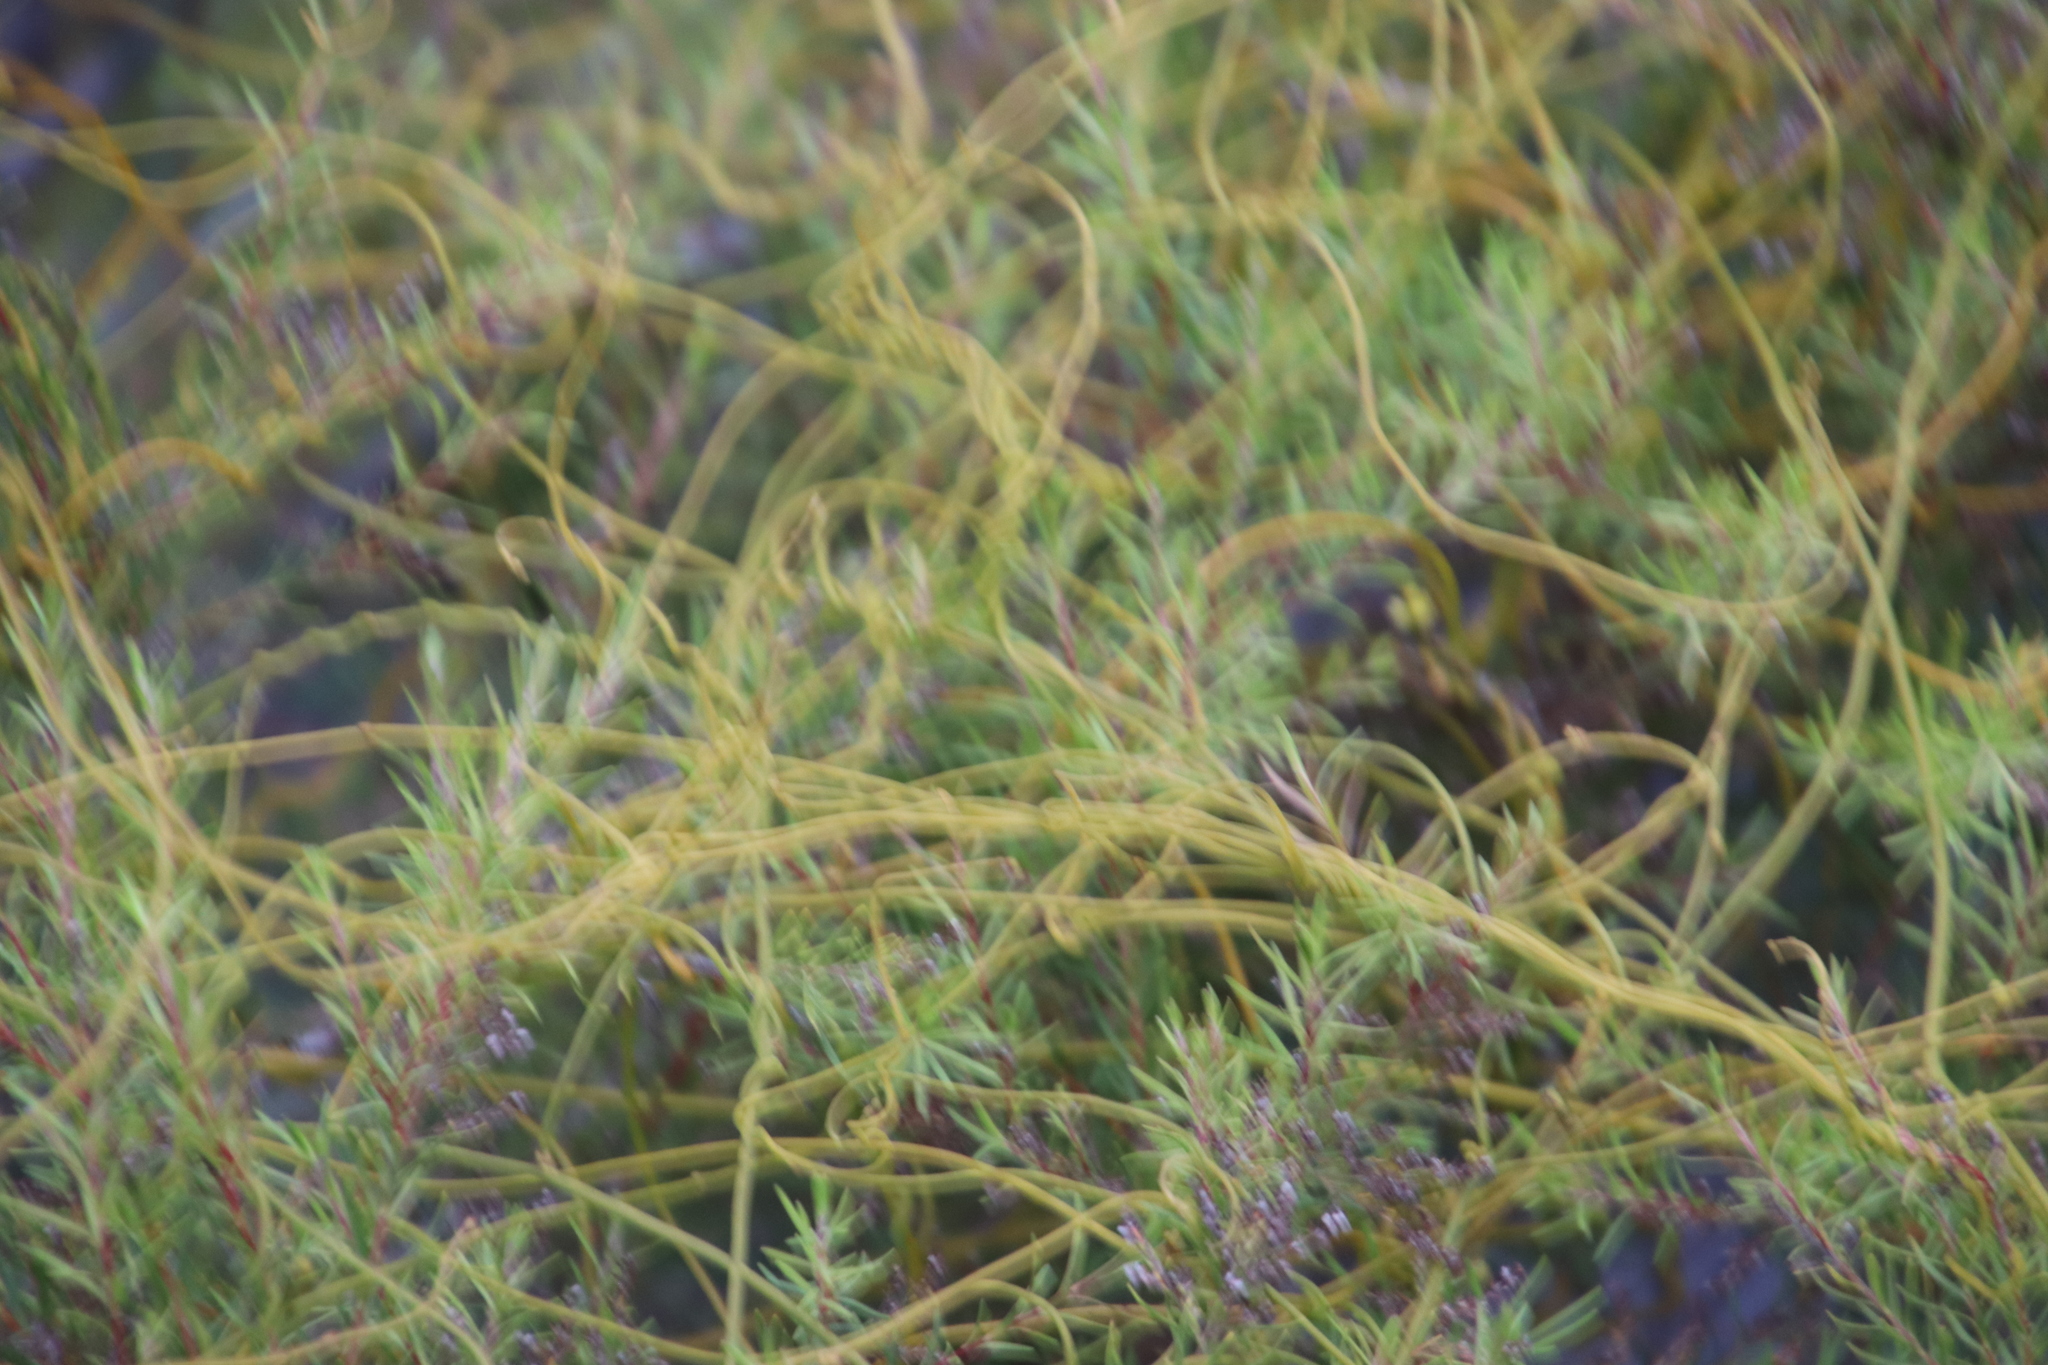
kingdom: Plantae
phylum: Tracheophyta
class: Magnoliopsida
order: Laurales
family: Lauraceae
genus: Cassytha
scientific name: Cassytha ciliolata
